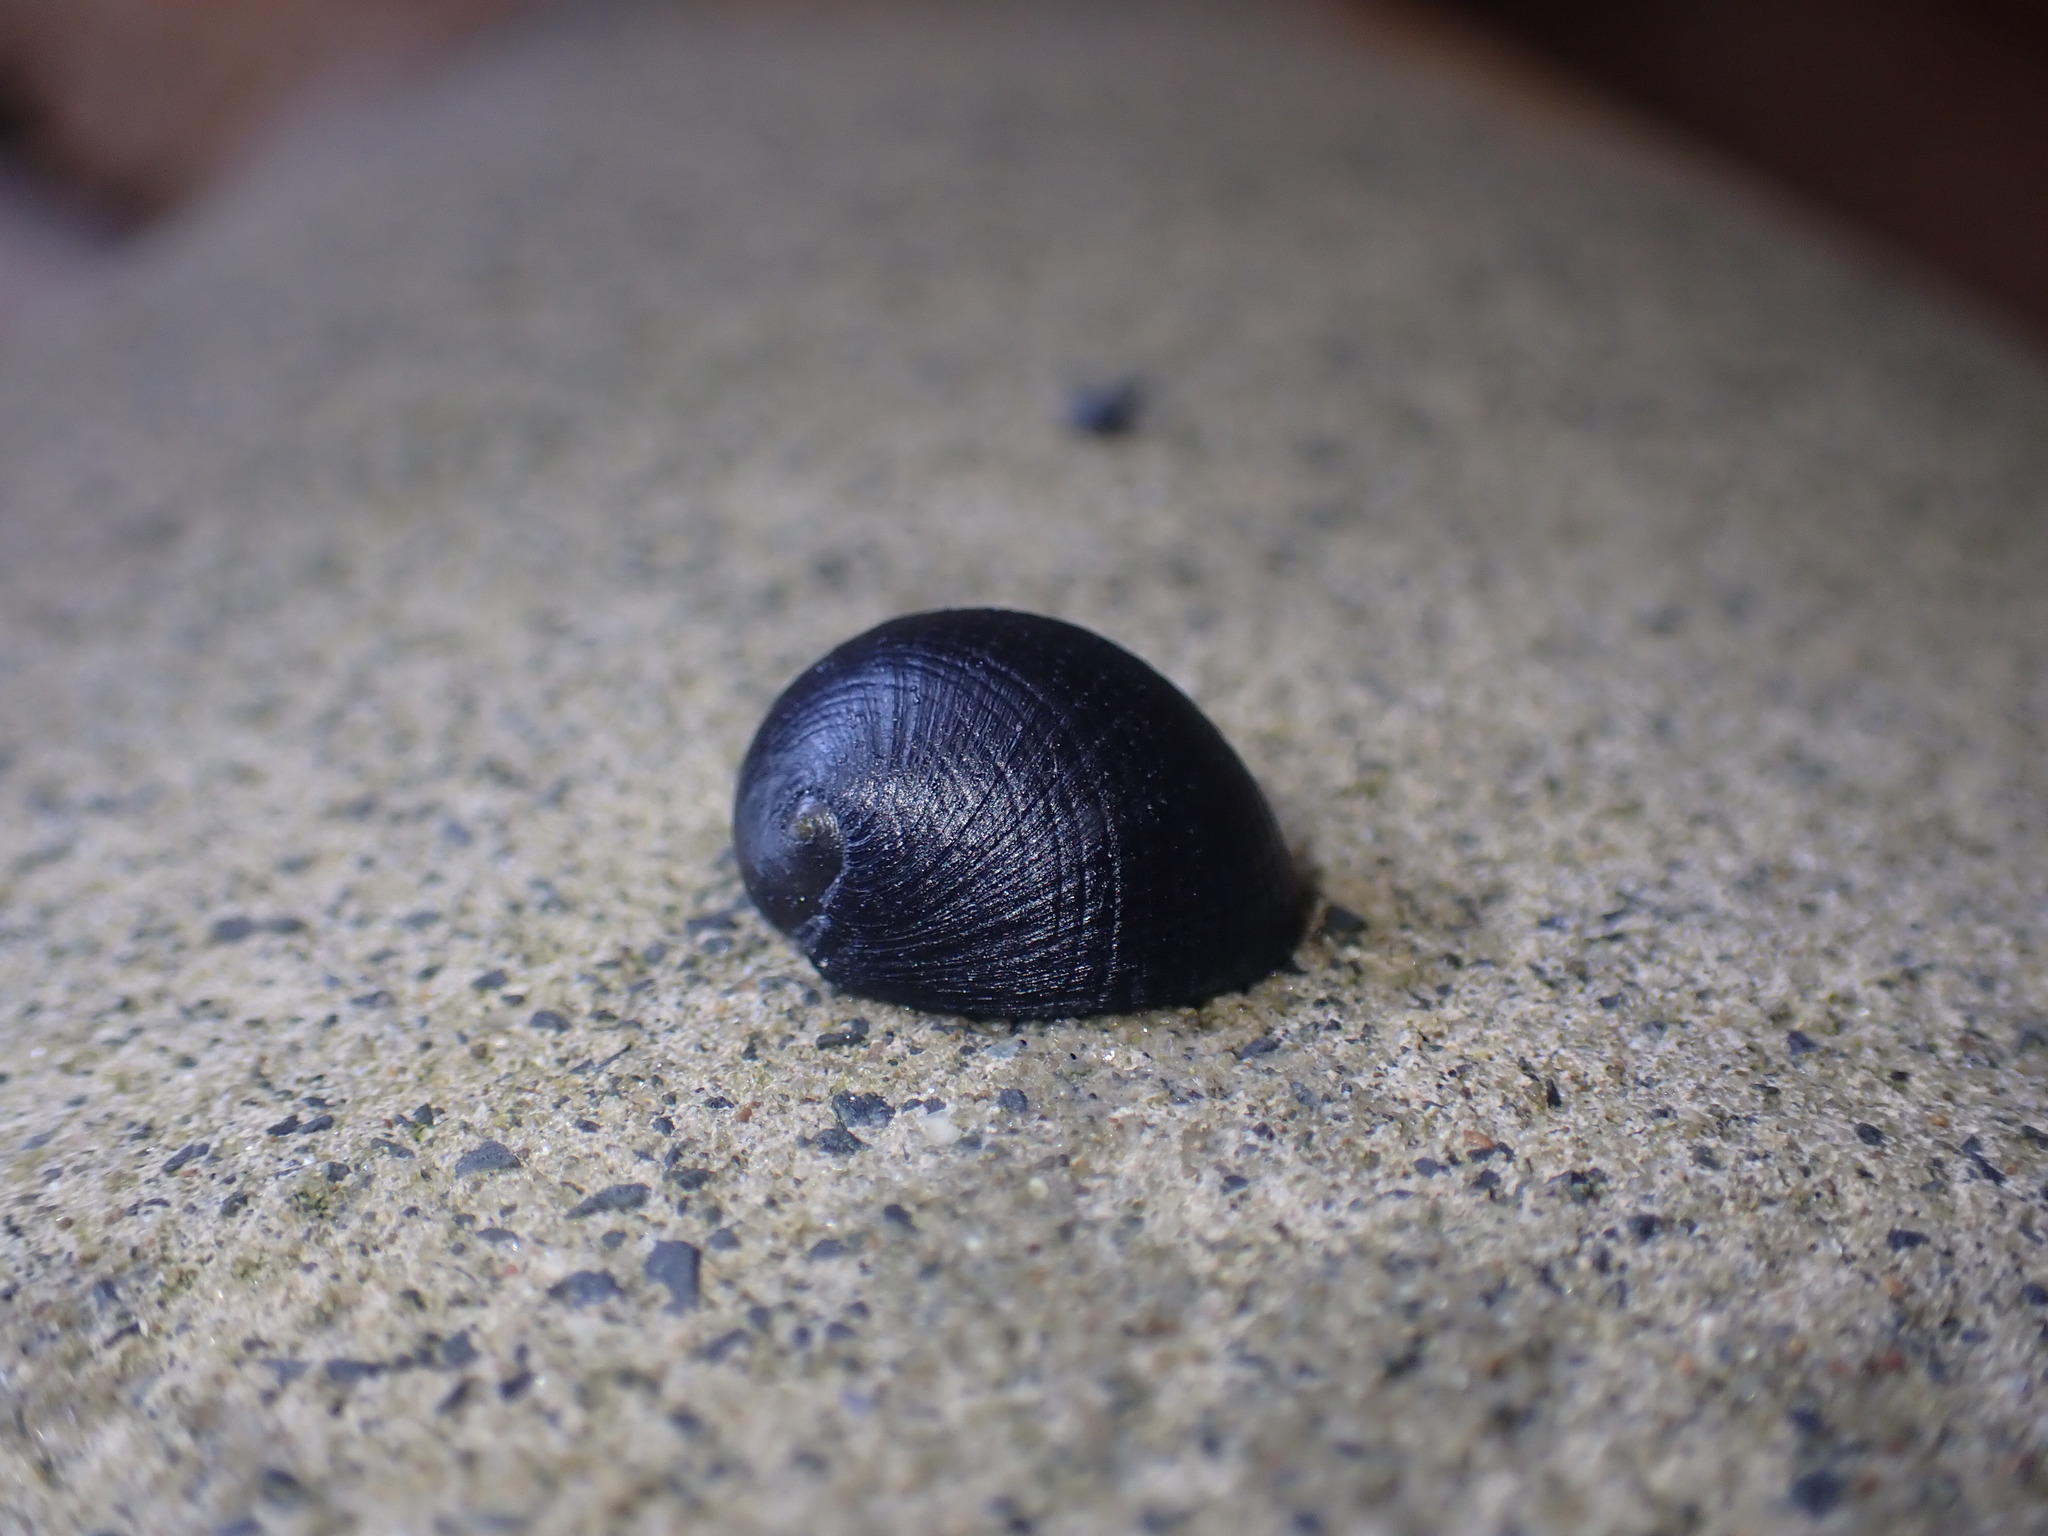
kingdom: Animalia
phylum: Mollusca
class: Gastropoda
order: Cycloneritida
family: Neritidae
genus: Nerita
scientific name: Nerita melanotragus
